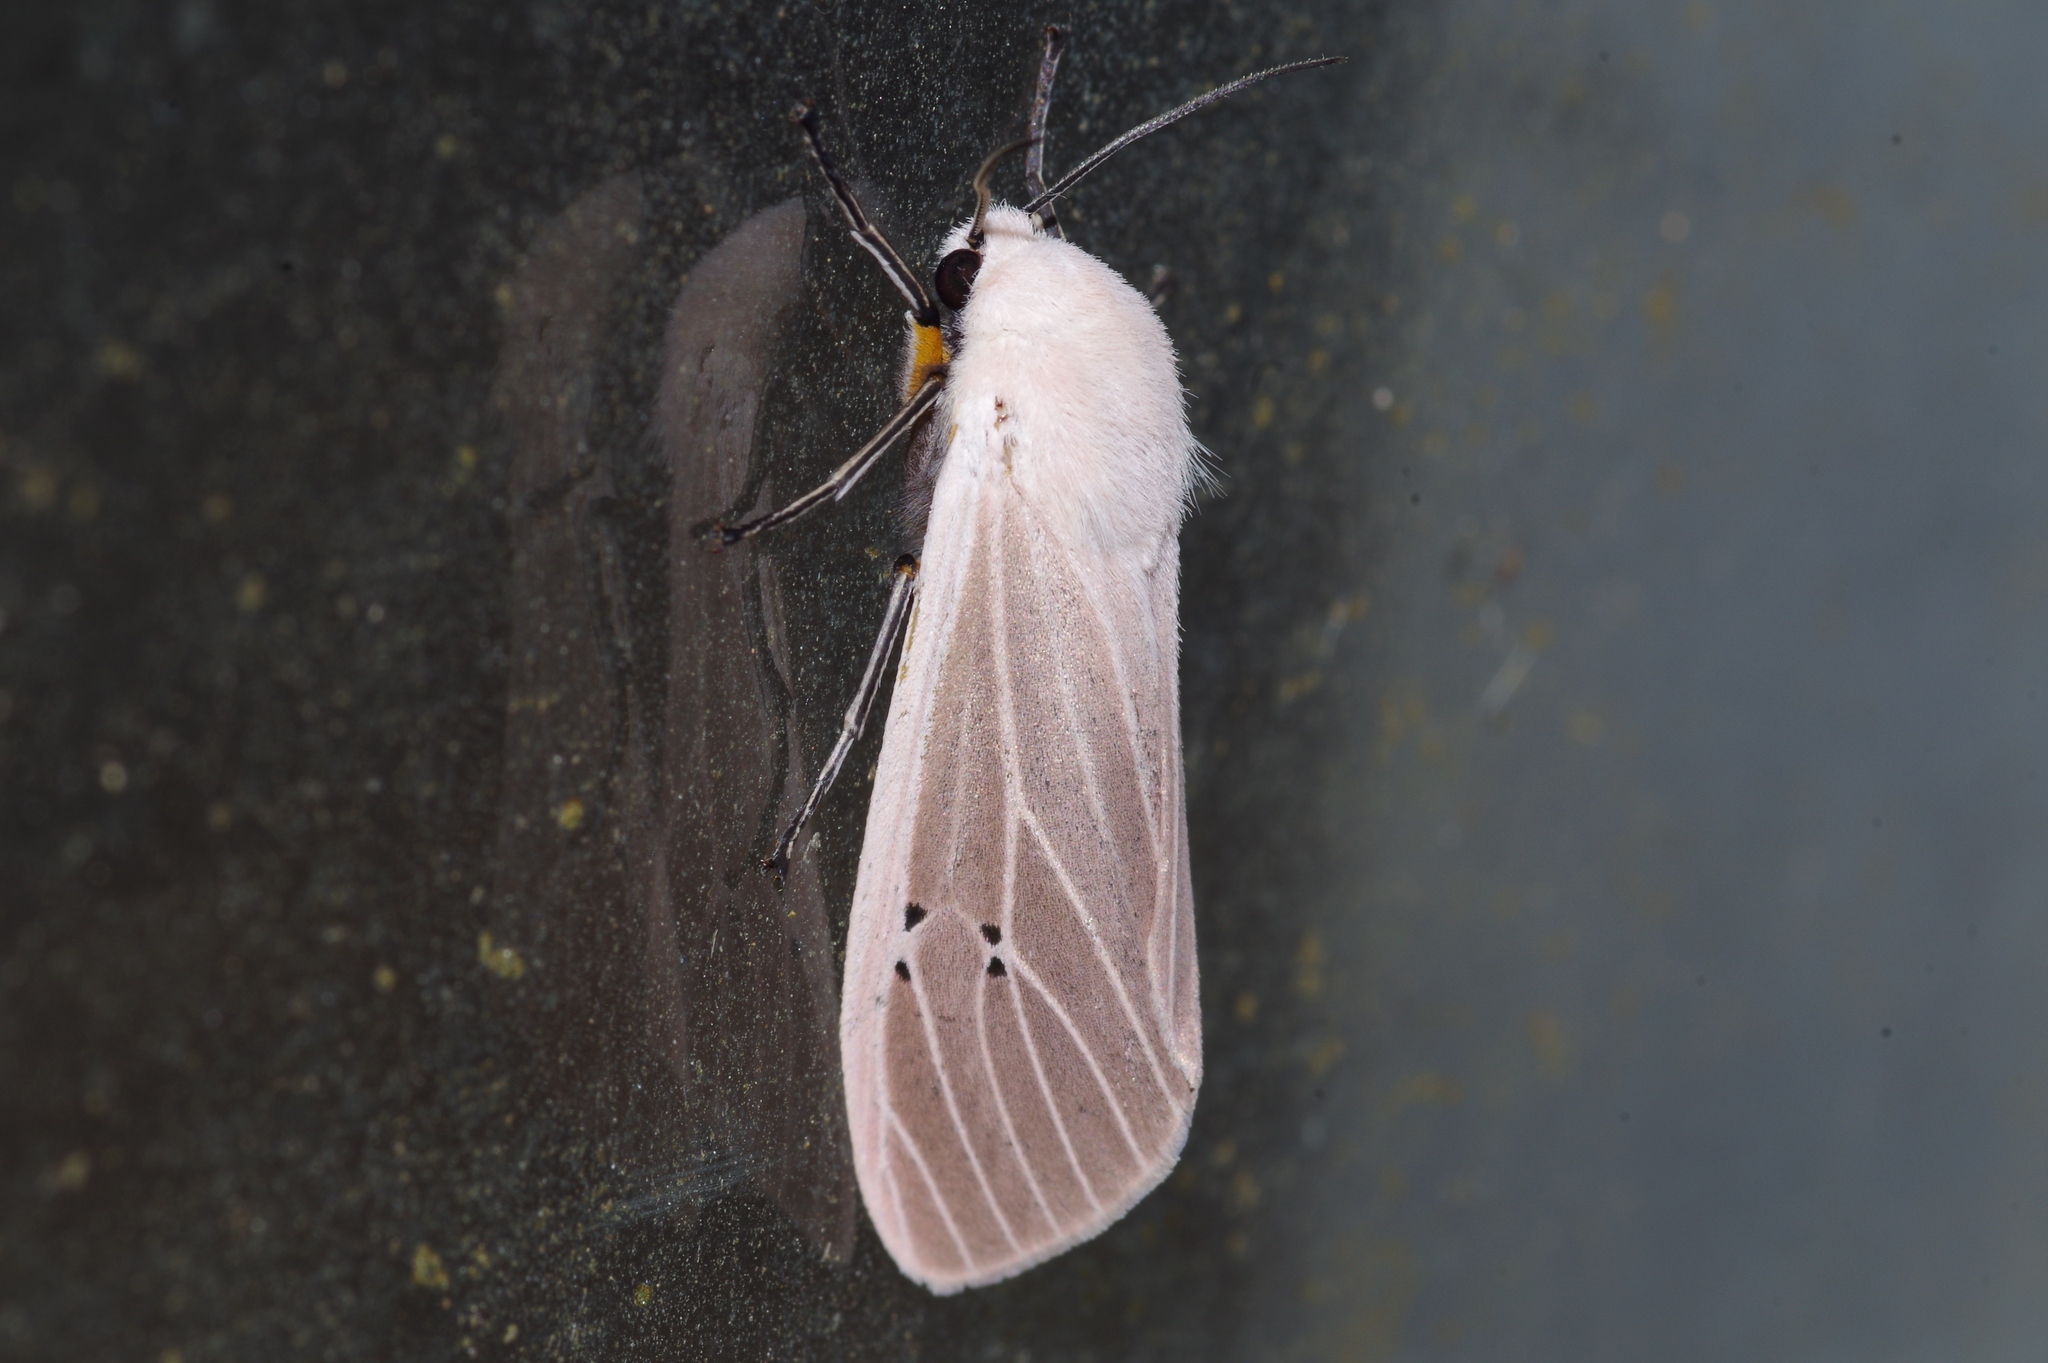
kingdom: Animalia
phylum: Arthropoda
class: Insecta
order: Lepidoptera
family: Erebidae
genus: Creatonotos
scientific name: Creatonotos transiens
